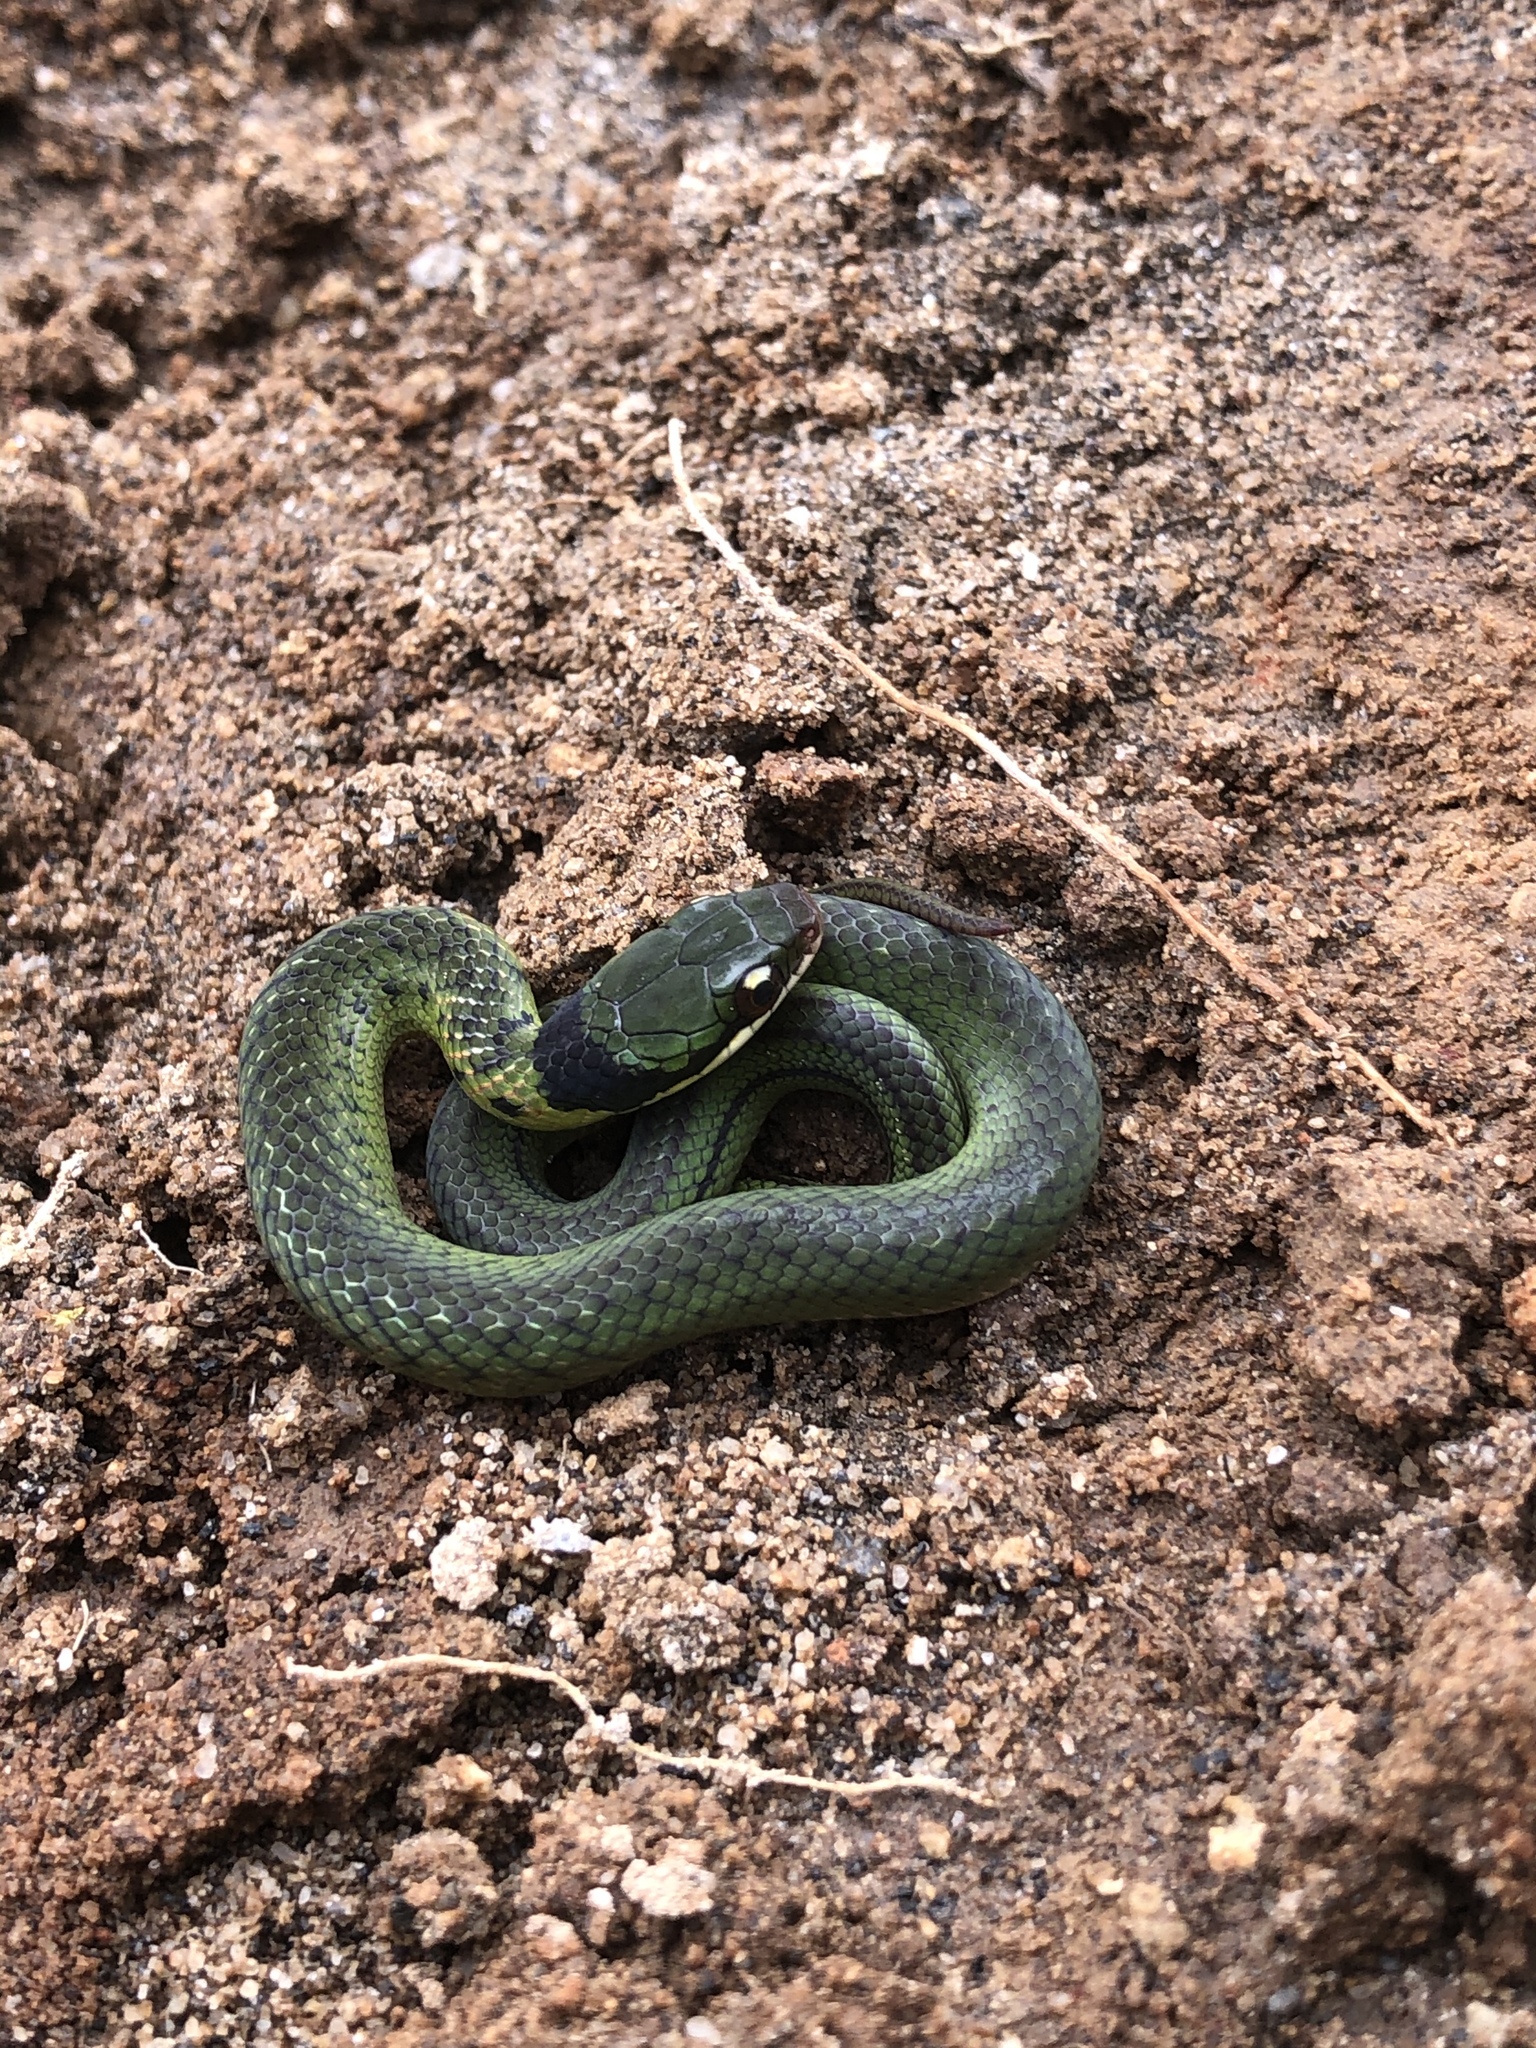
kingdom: Animalia
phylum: Chordata
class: Squamata
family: Colubridae
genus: Erythrolamprus
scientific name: Erythrolamprus epinephalus
